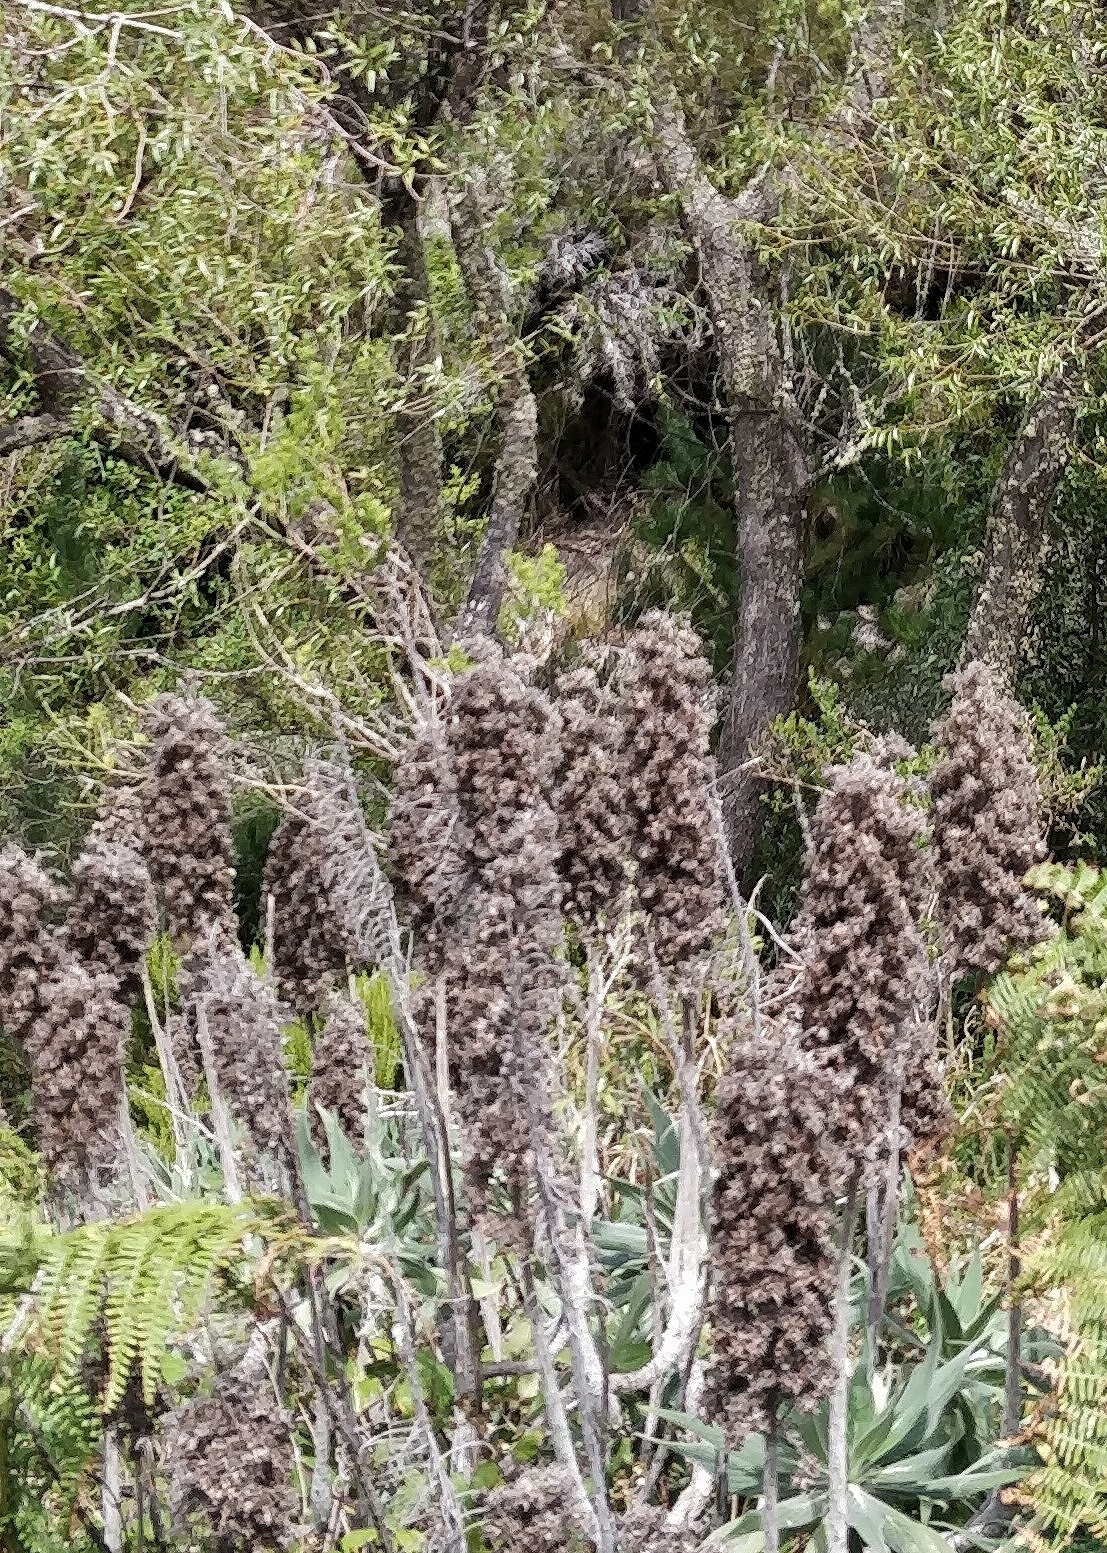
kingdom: Plantae
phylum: Tracheophyta
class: Magnoliopsida
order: Boraginales
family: Boraginaceae
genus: Echium
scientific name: Echium candicans
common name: Pride of madeira
